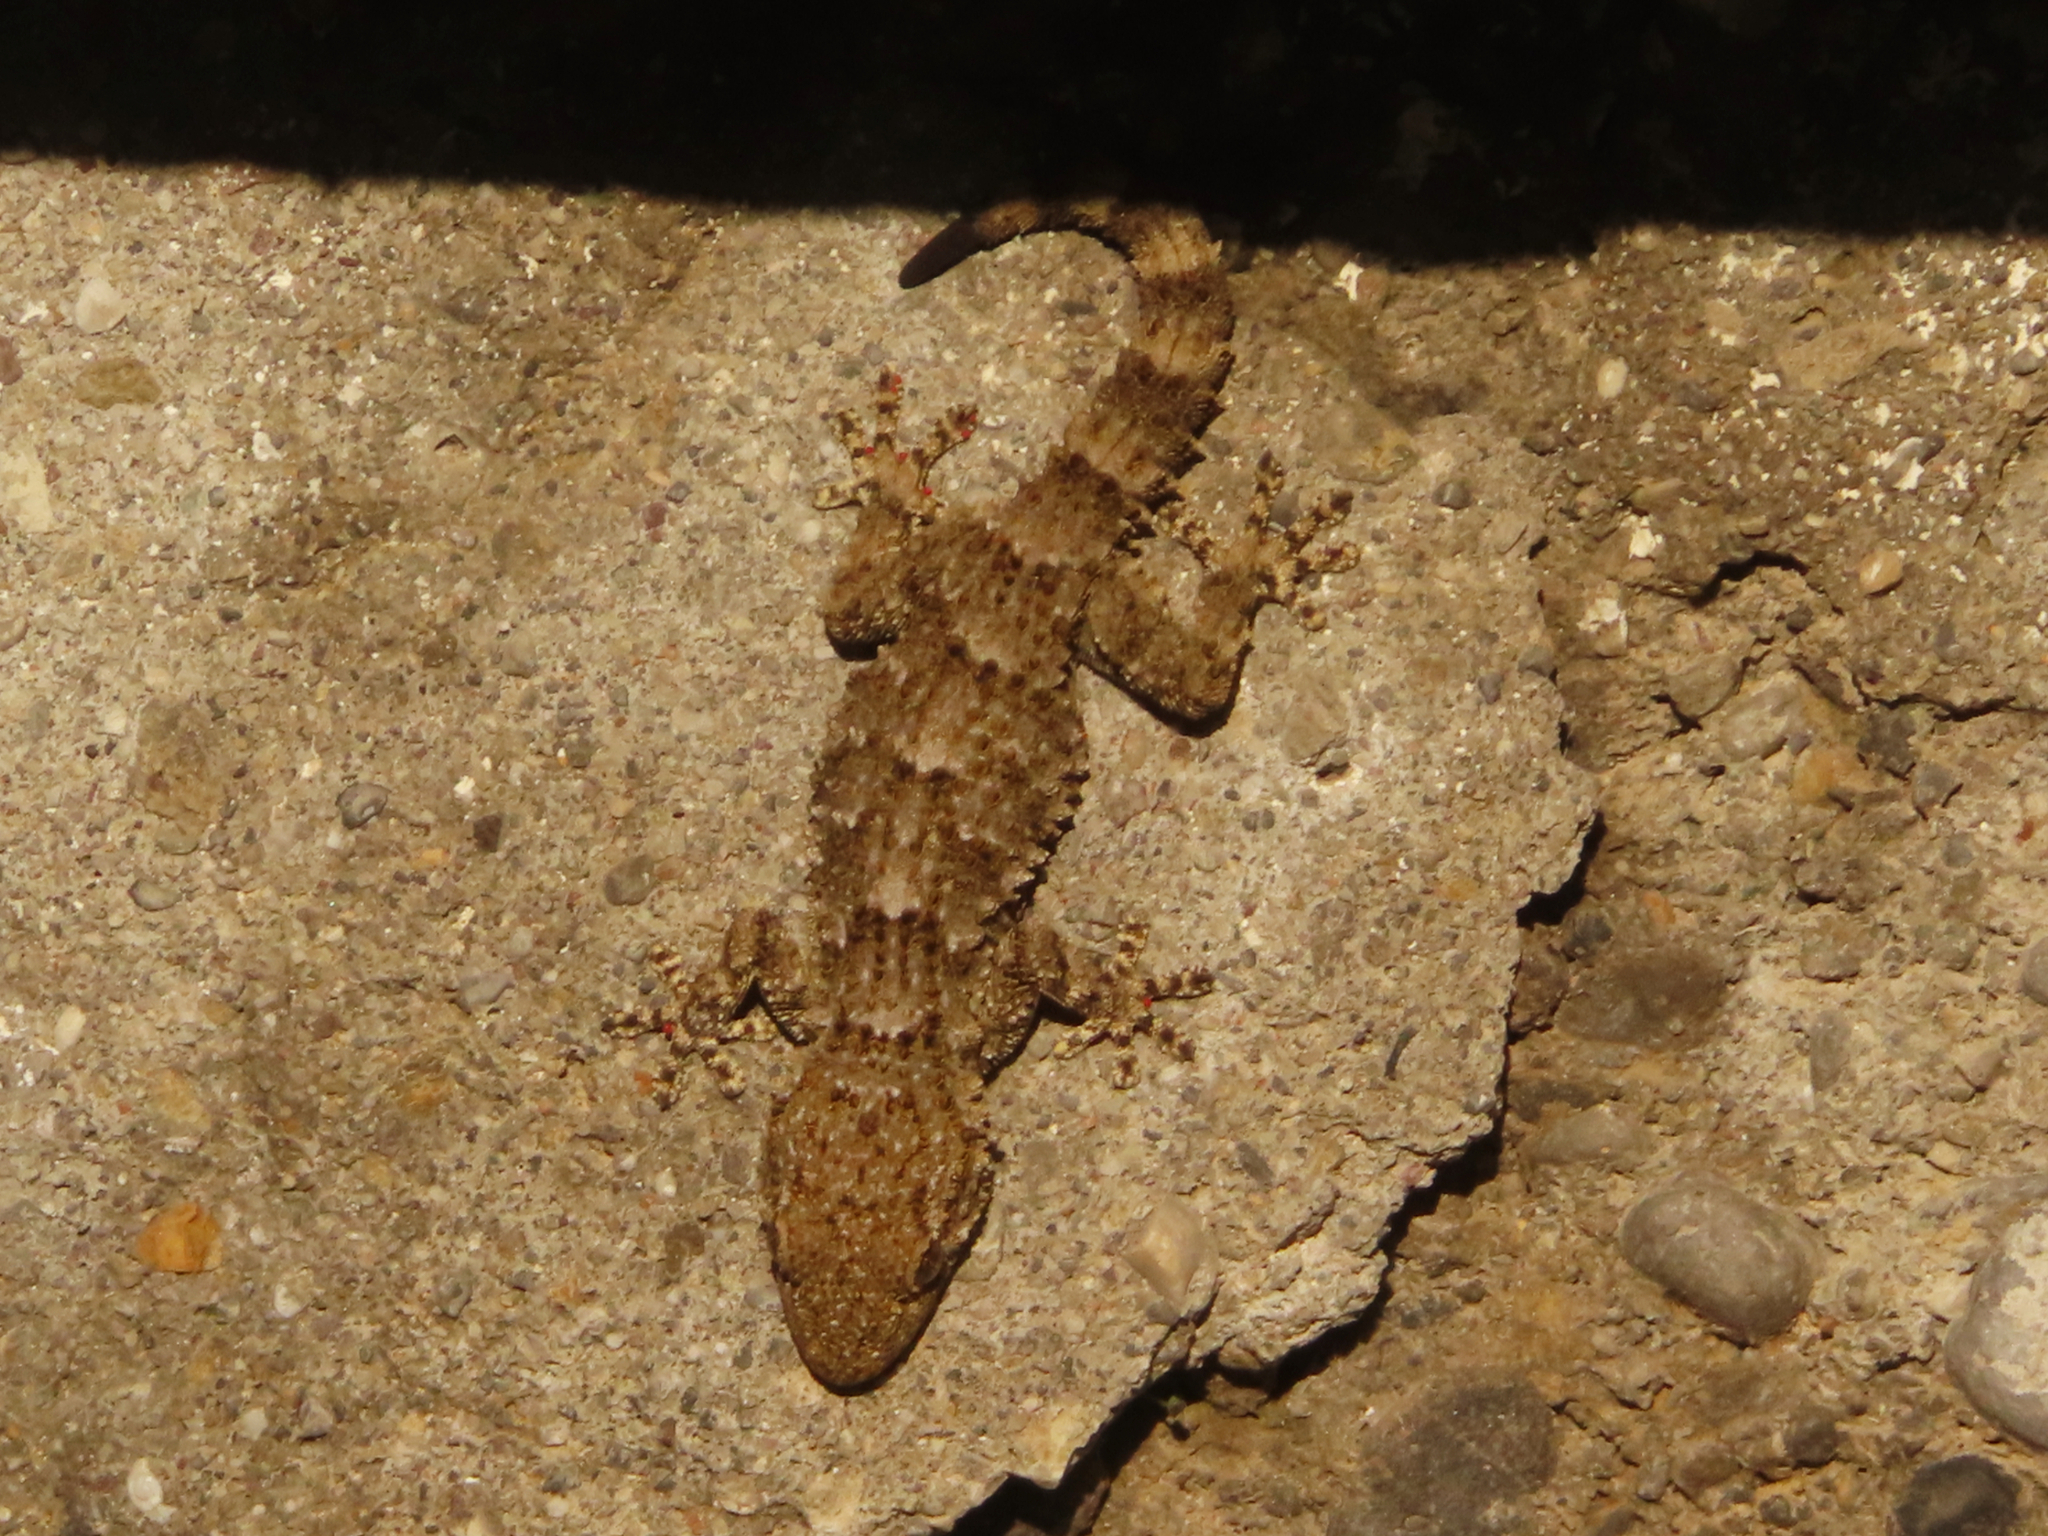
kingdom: Animalia
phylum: Chordata
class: Squamata
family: Phyllodactylidae
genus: Tarentola
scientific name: Tarentola mauritanica
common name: Moorish gecko
